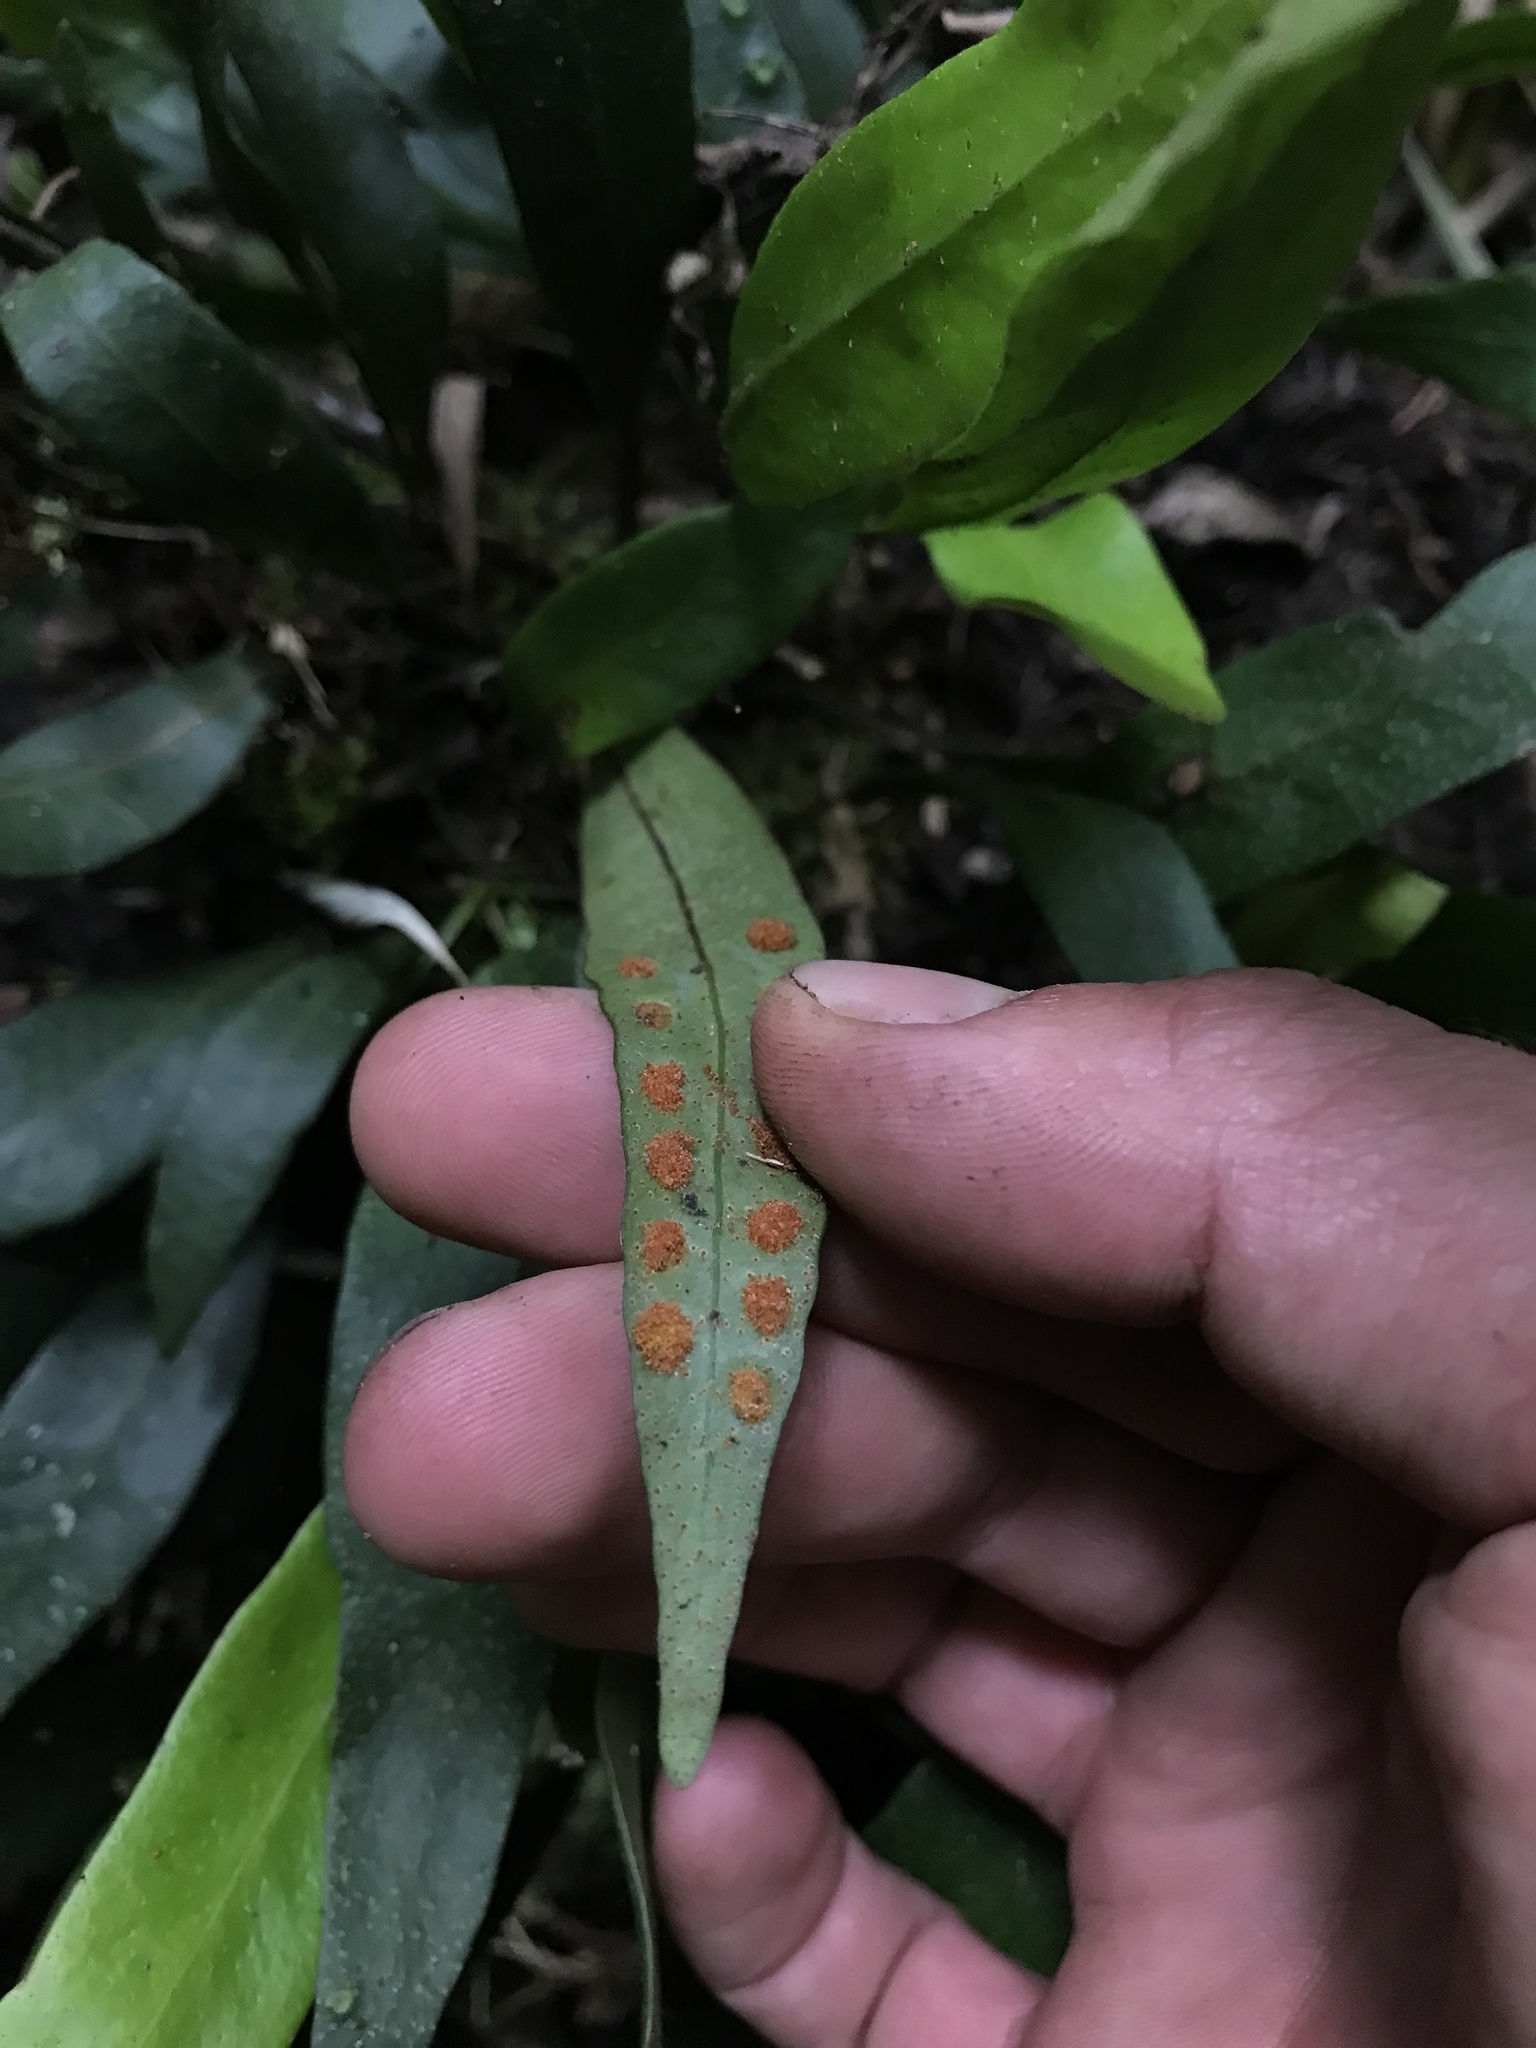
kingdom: Plantae
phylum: Tracheophyta
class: Polypodiopsida
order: Polypodiales
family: Polypodiaceae
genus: Pleopeltis
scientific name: Pleopeltis macrocarpa
